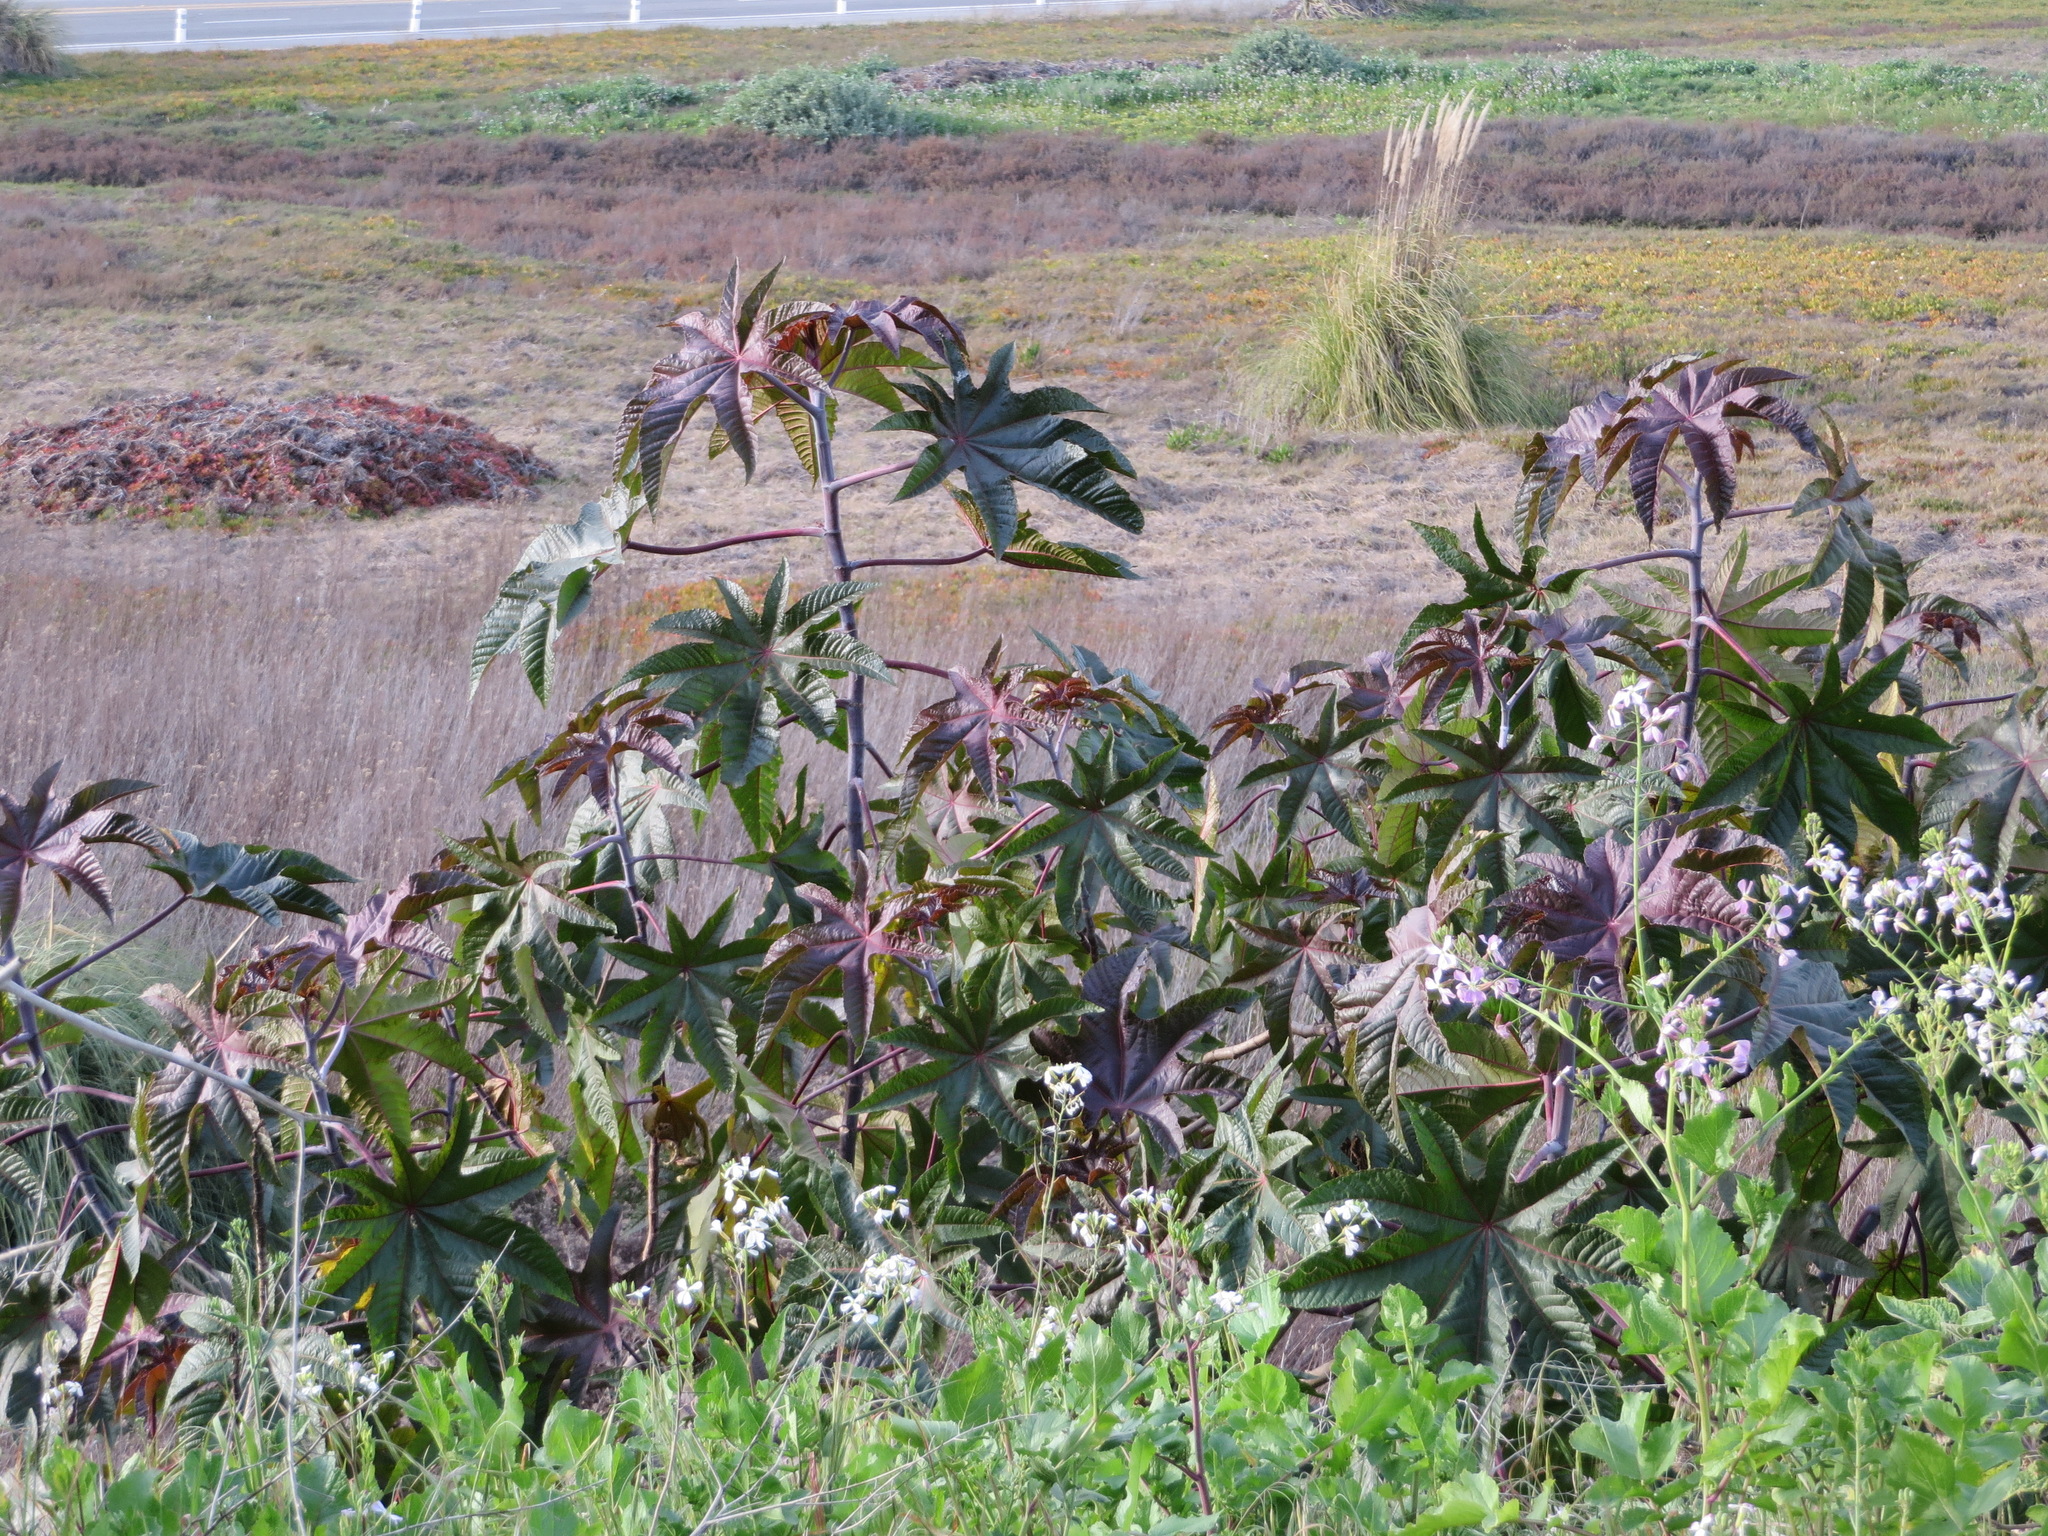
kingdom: Plantae
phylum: Tracheophyta
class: Magnoliopsida
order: Malpighiales
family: Euphorbiaceae
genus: Ricinus
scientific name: Ricinus communis
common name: Castor-oil-plant
